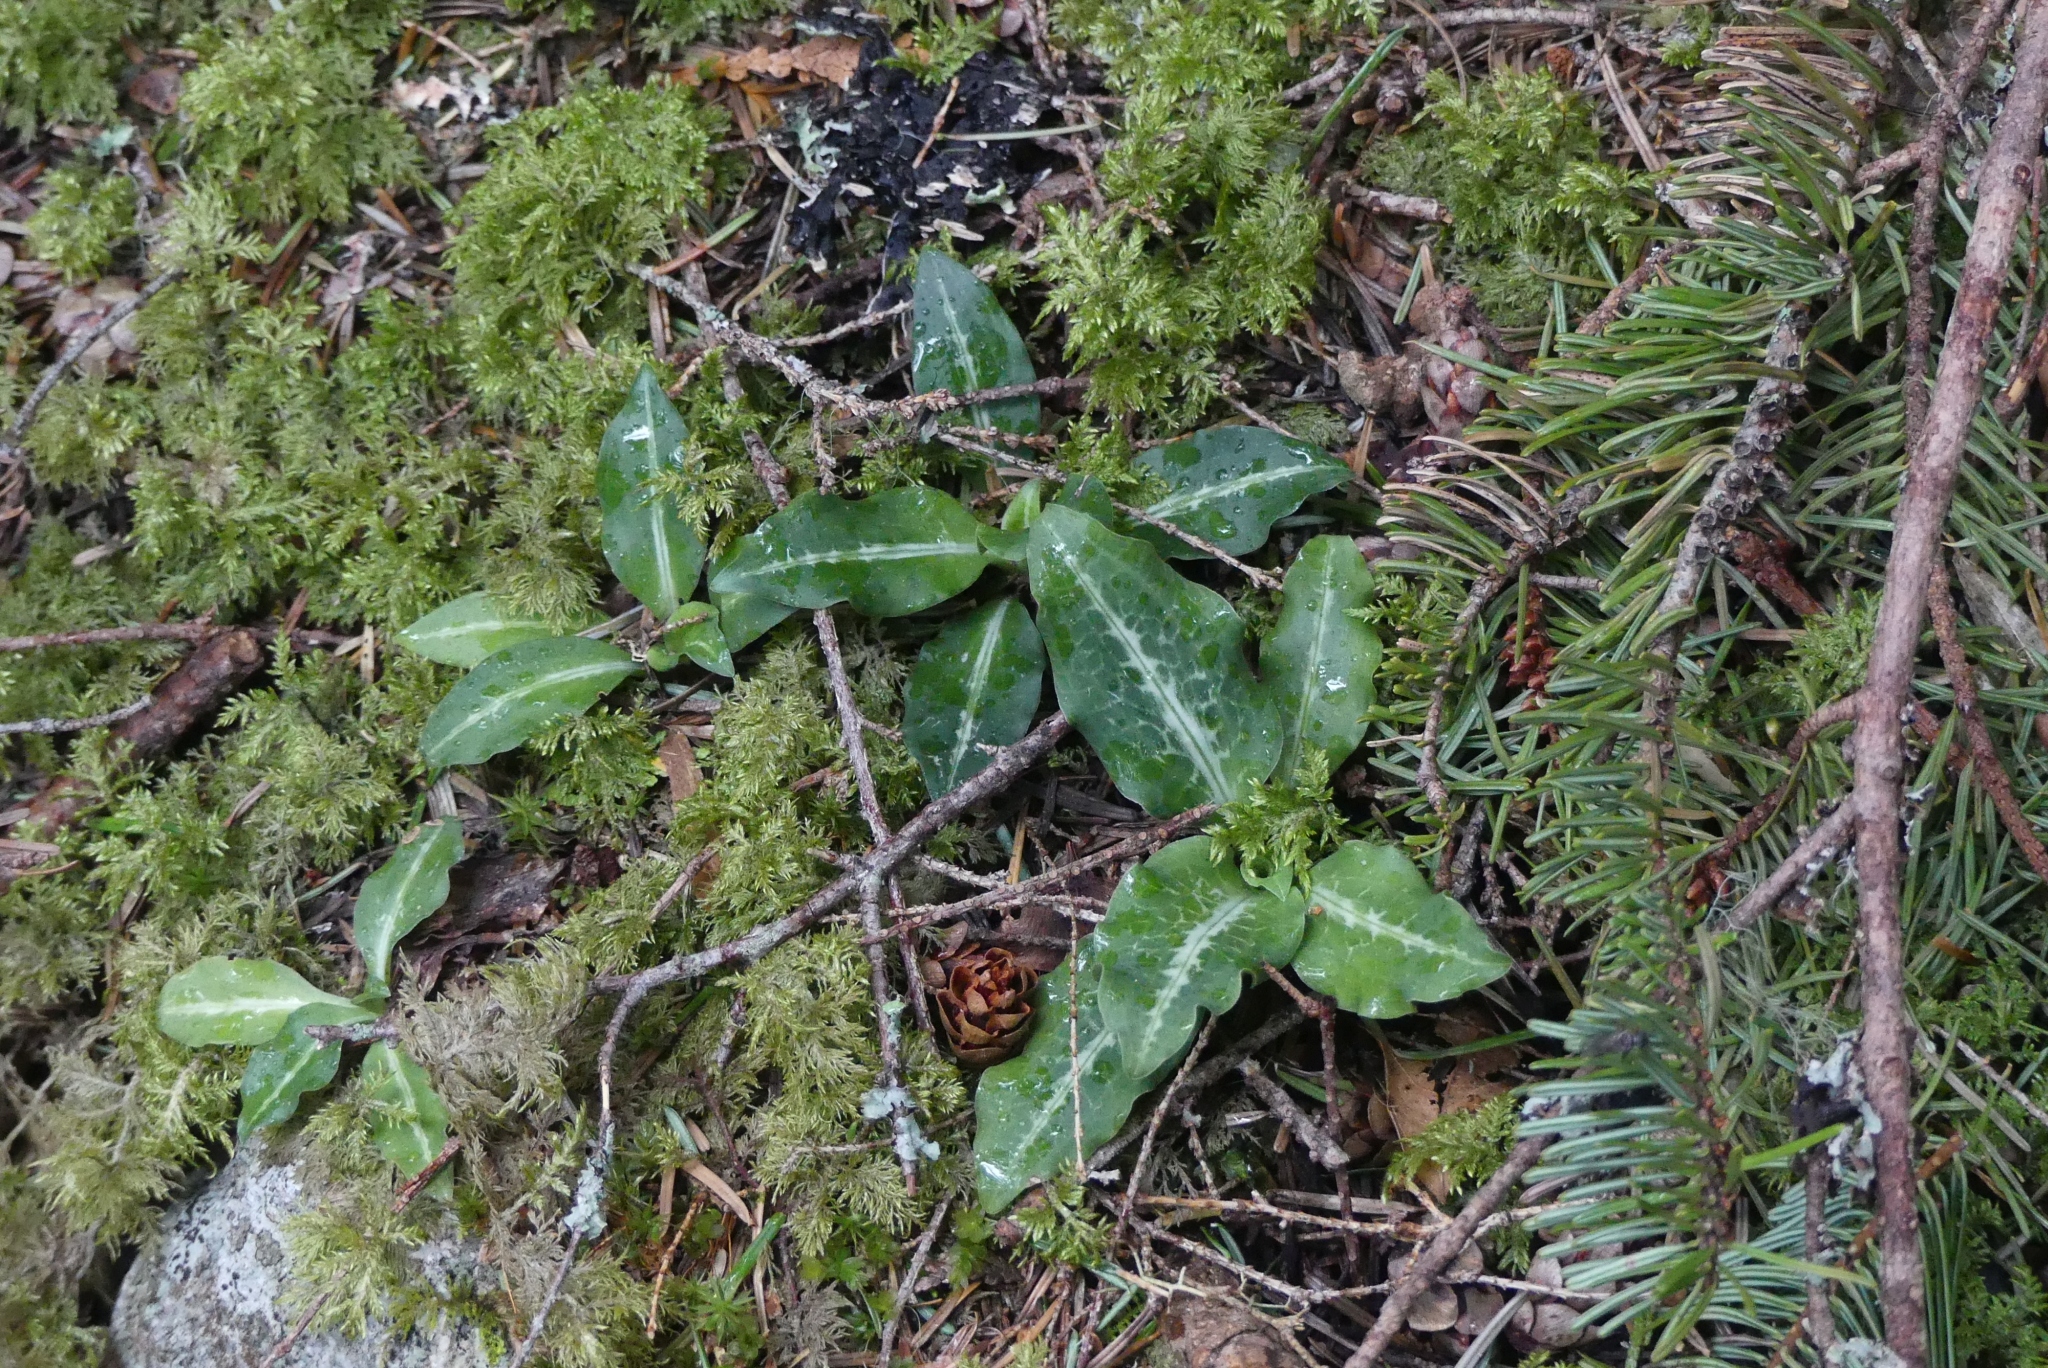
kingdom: Plantae
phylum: Tracheophyta
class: Liliopsida
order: Asparagales
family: Orchidaceae
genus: Goodyera
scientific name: Goodyera oblongifolia
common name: Giant rattlesnake-plantain
